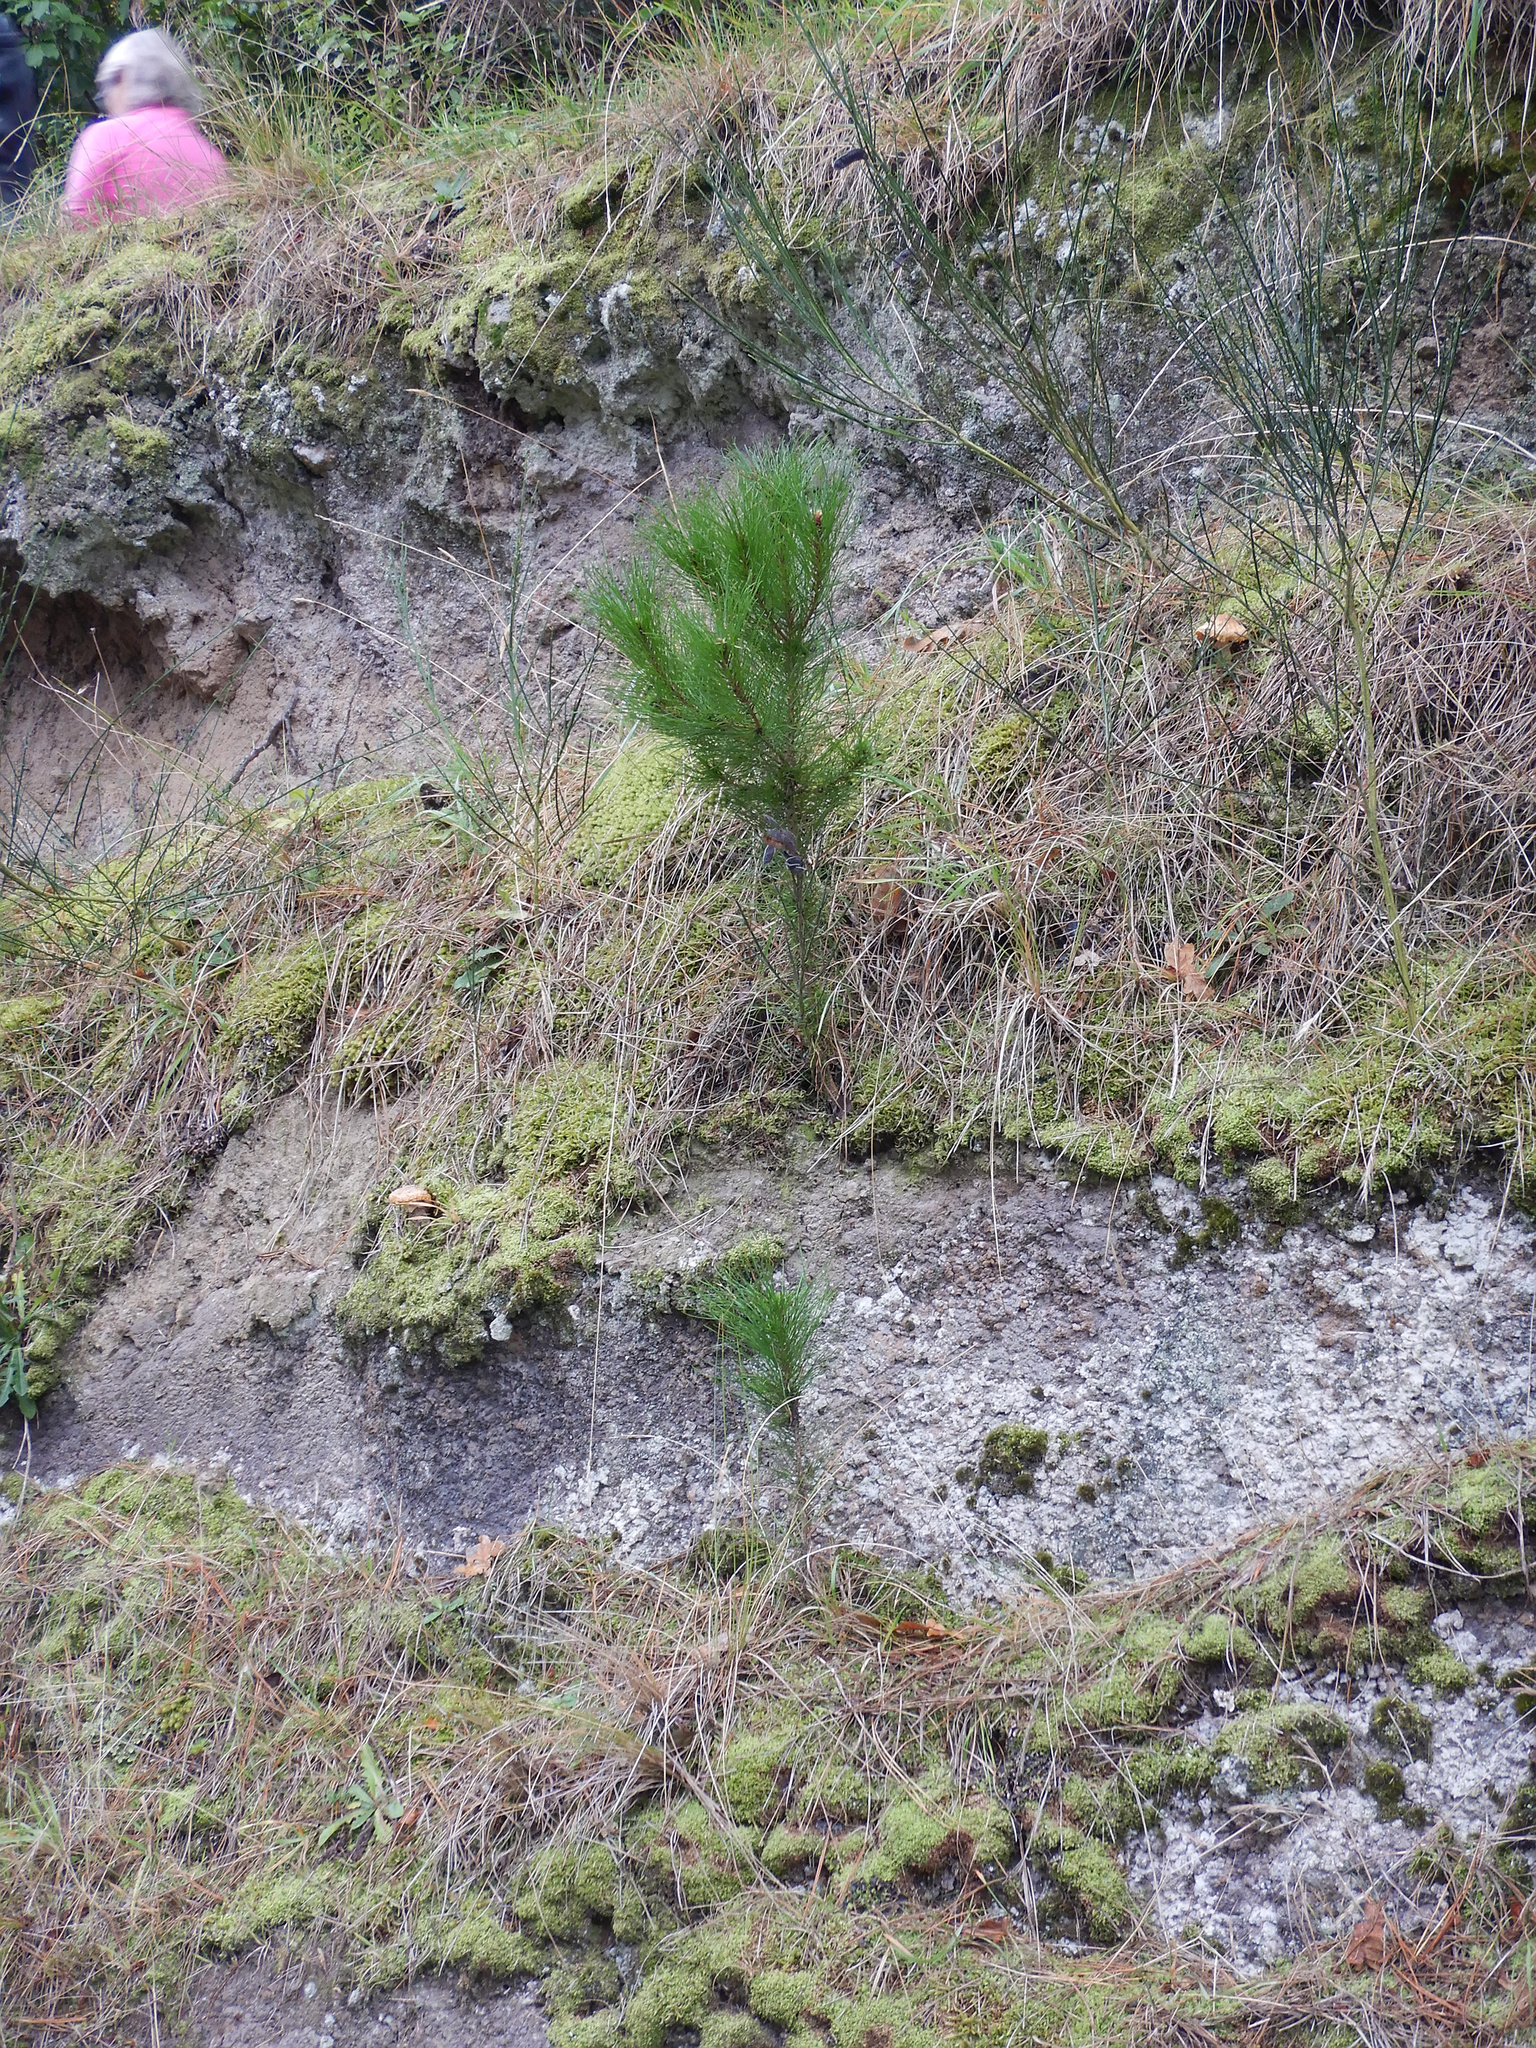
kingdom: Plantae
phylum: Tracheophyta
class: Pinopsida
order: Pinales
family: Pinaceae
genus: Pinus
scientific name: Pinus radiata
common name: Monterey pine
